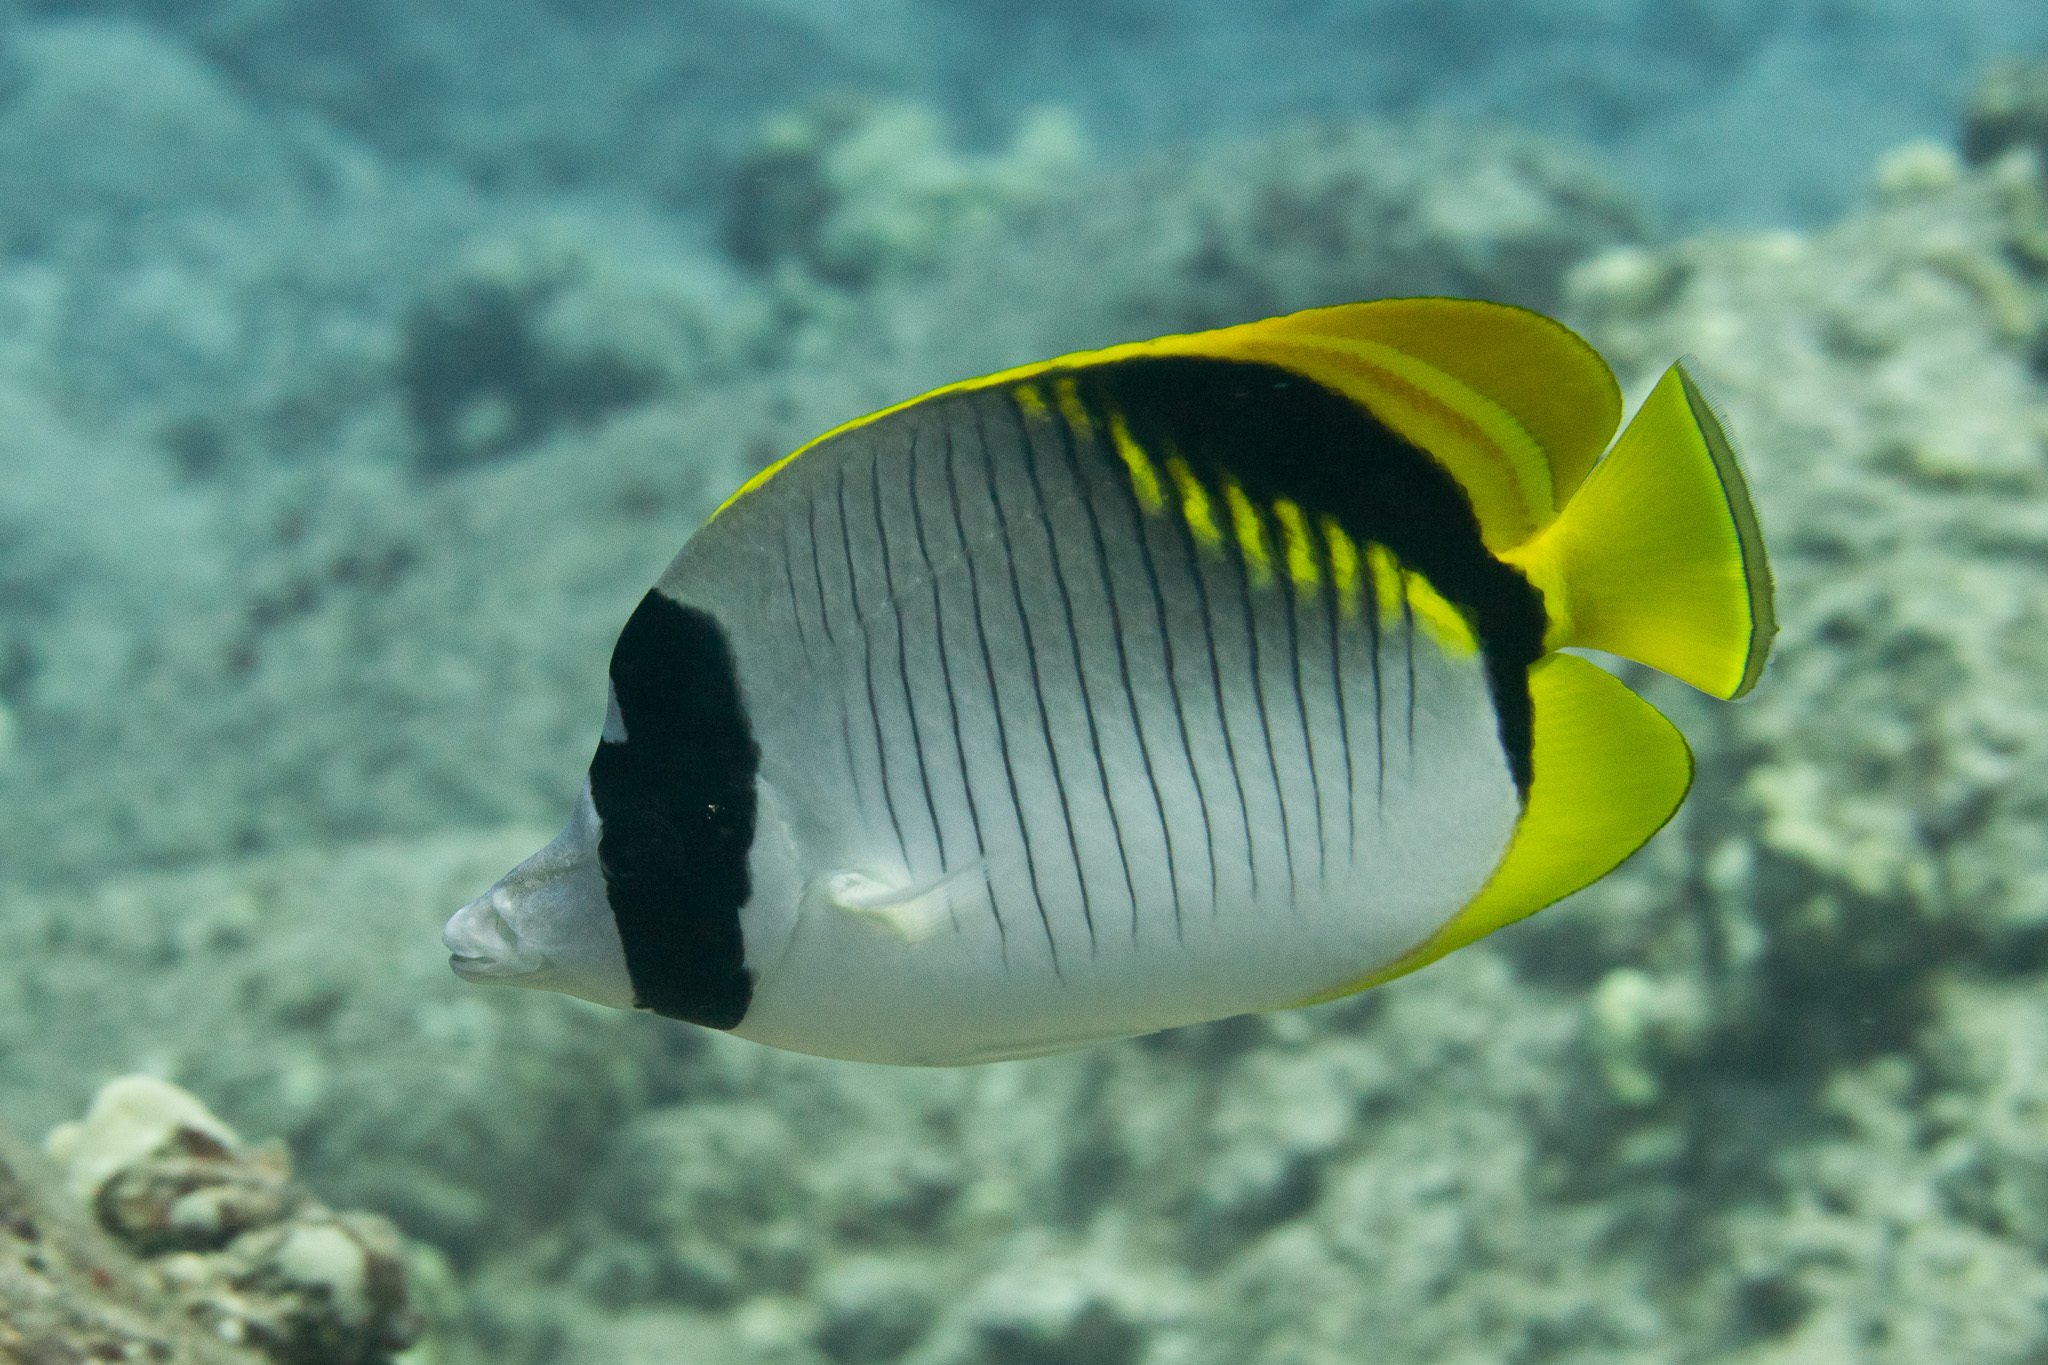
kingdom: Animalia
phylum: Chordata
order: Perciformes
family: Chaetodontidae
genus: Chaetodon
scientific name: Chaetodon lineolatus
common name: Lined butterflyfish
